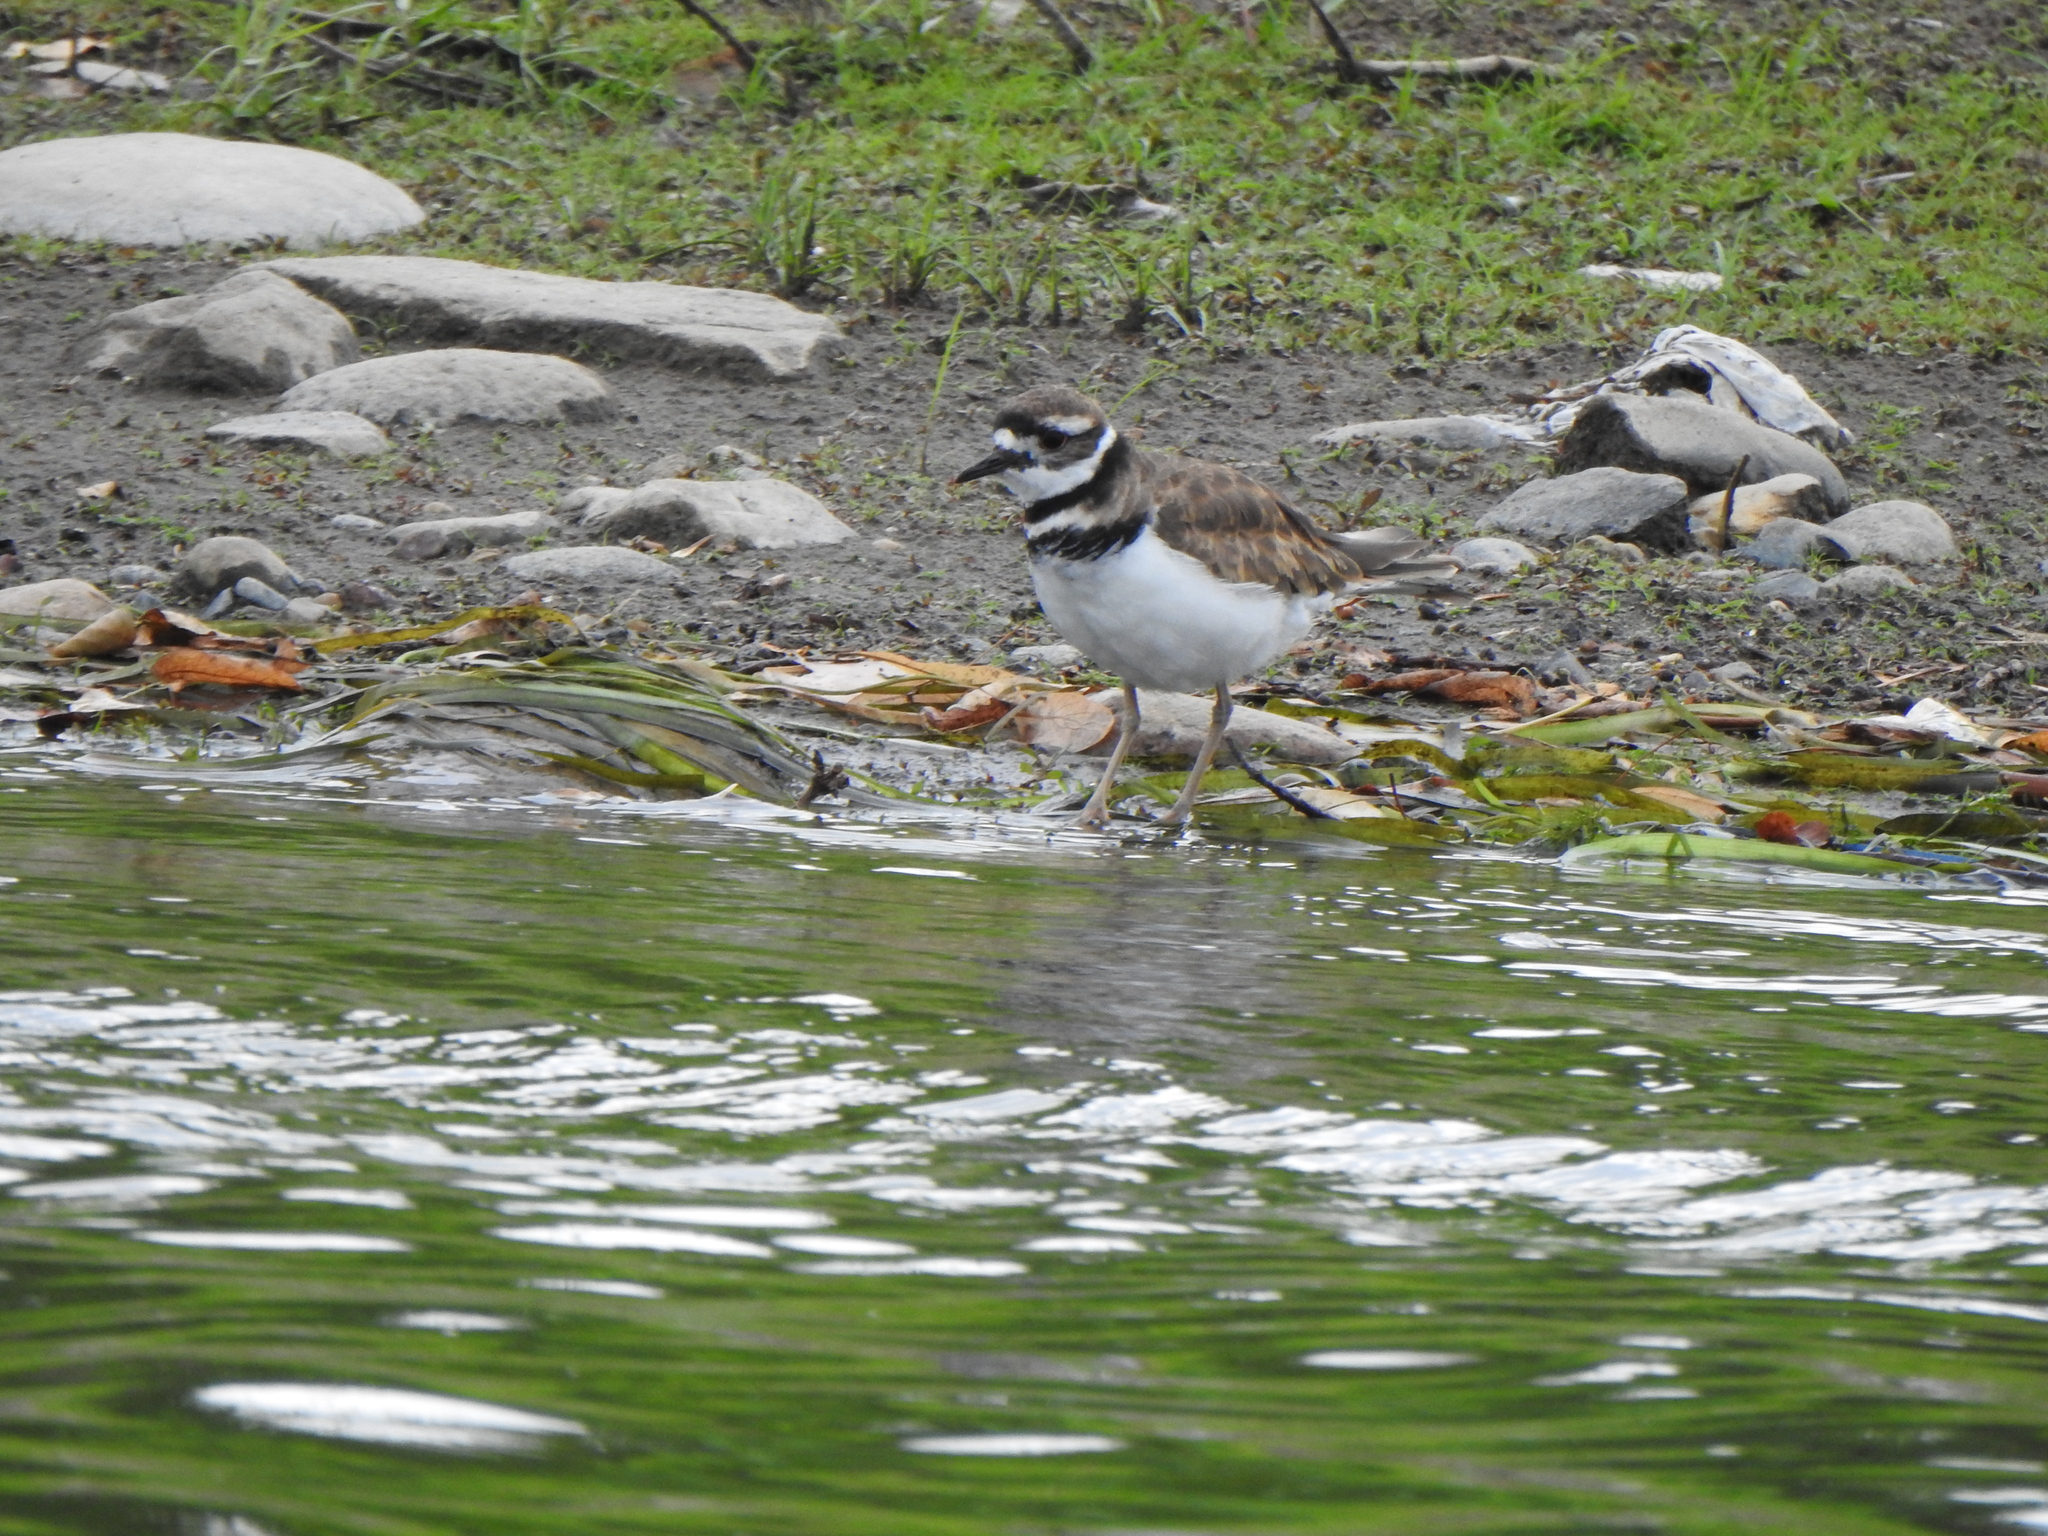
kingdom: Animalia
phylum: Chordata
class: Aves
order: Charadriiformes
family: Charadriidae
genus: Charadrius
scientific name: Charadrius vociferus
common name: Killdeer
